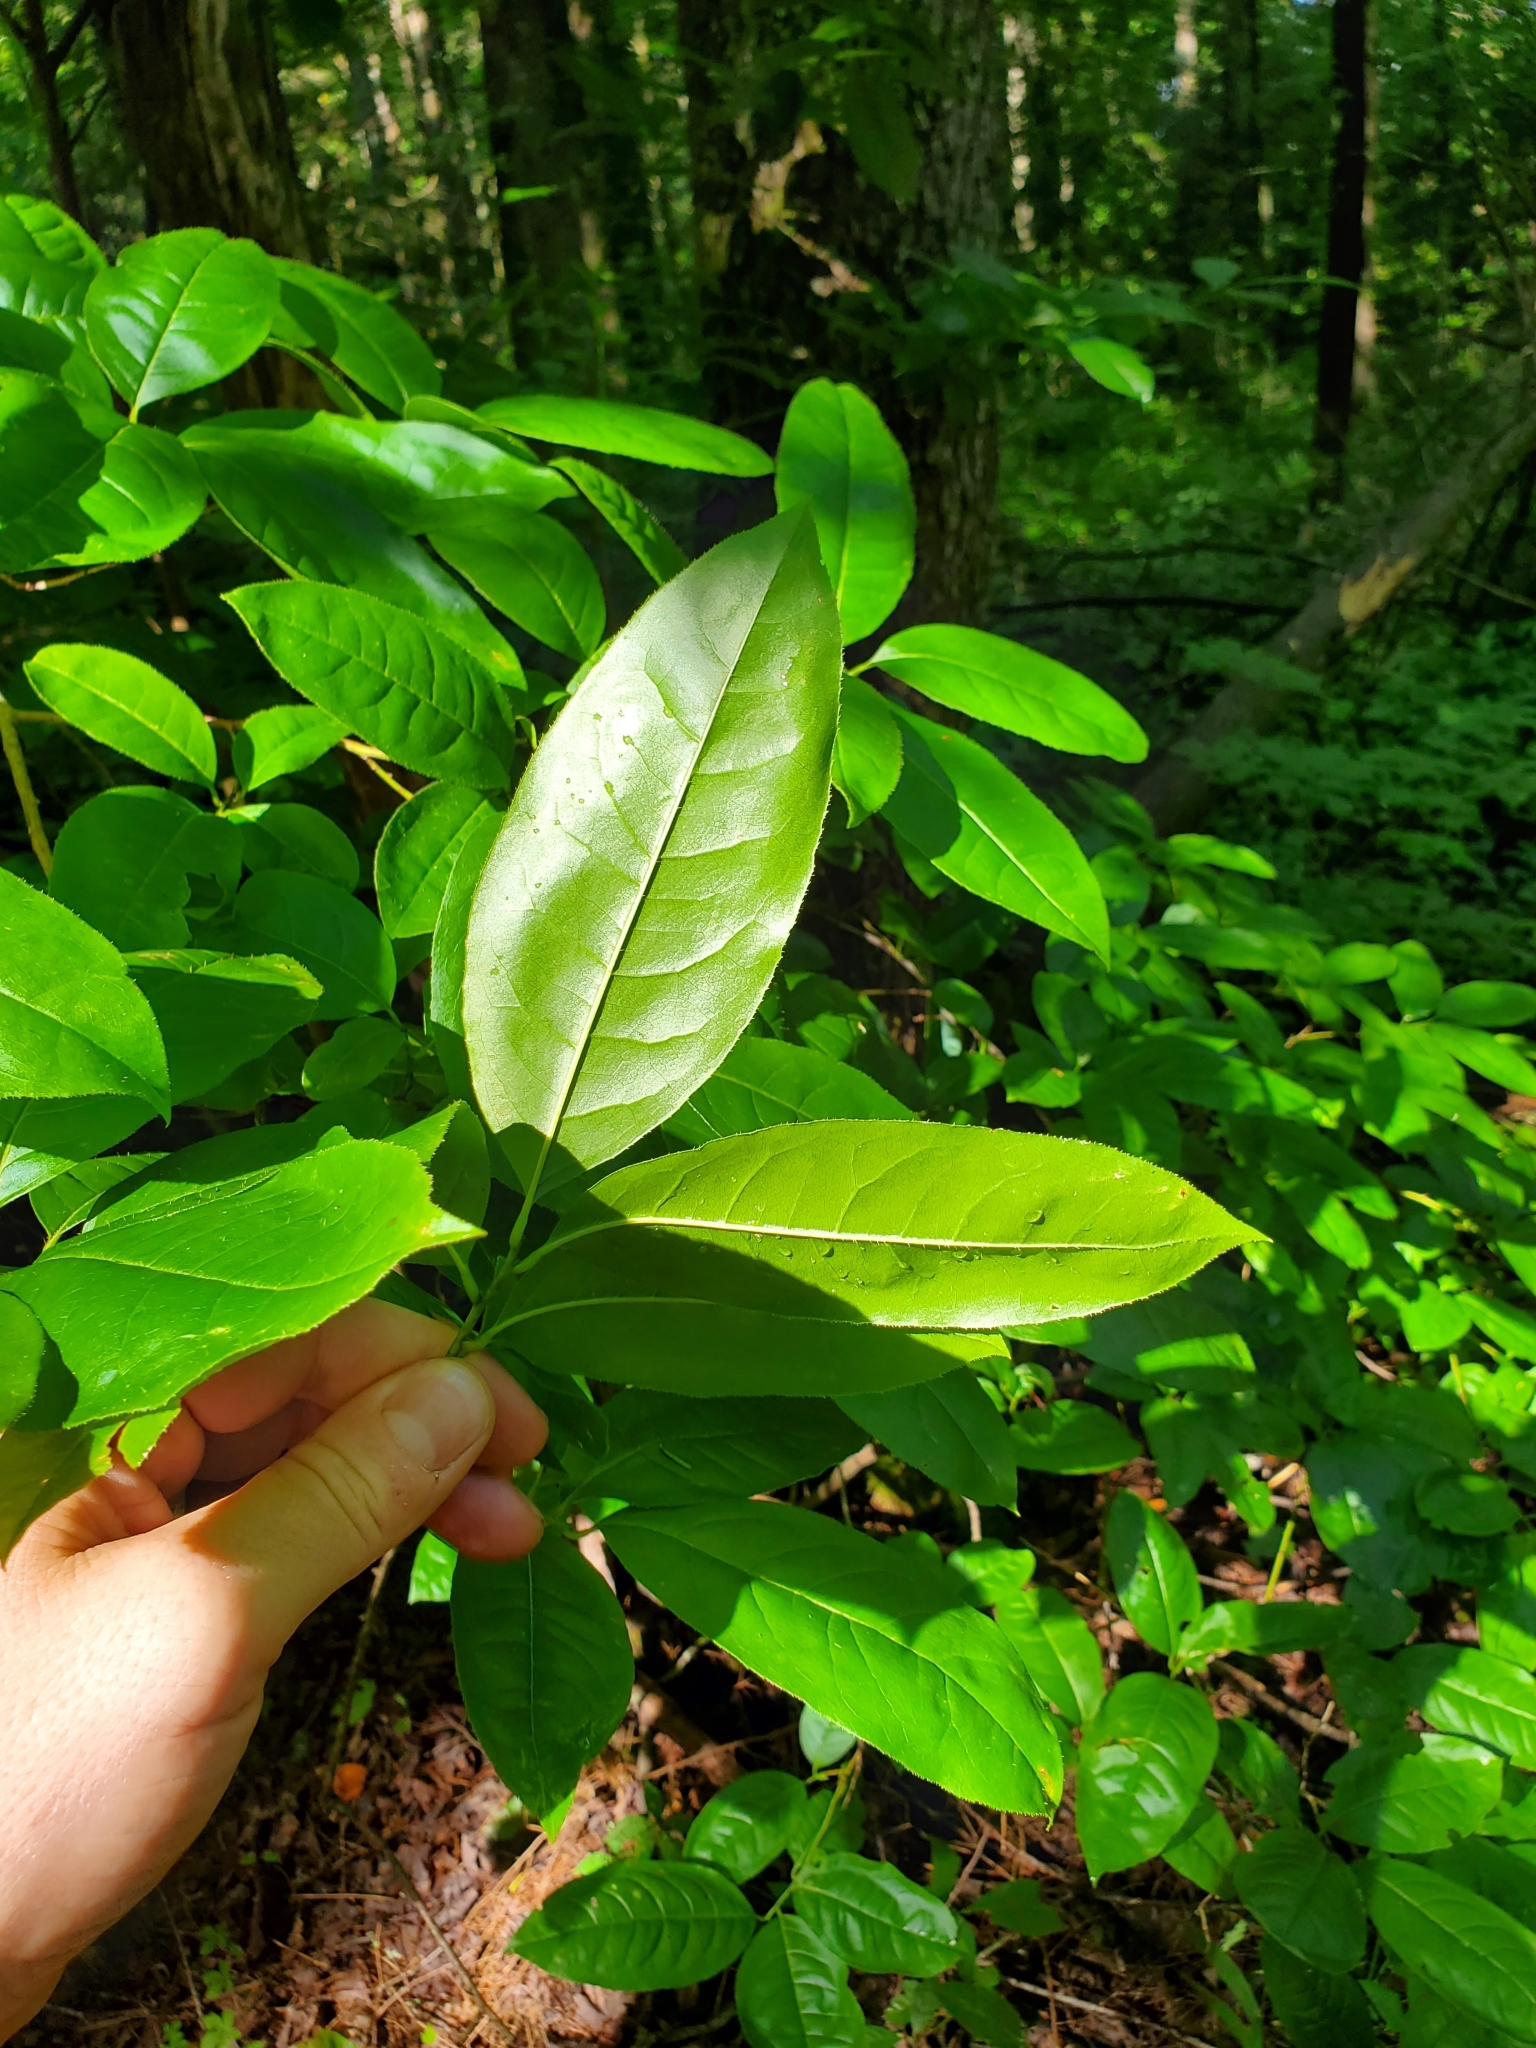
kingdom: Plantae
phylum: Tracheophyta
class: Magnoliopsida
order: Ericales
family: Ericaceae
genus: Oxydendrum
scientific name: Oxydendrum arboreum
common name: Sourwood
